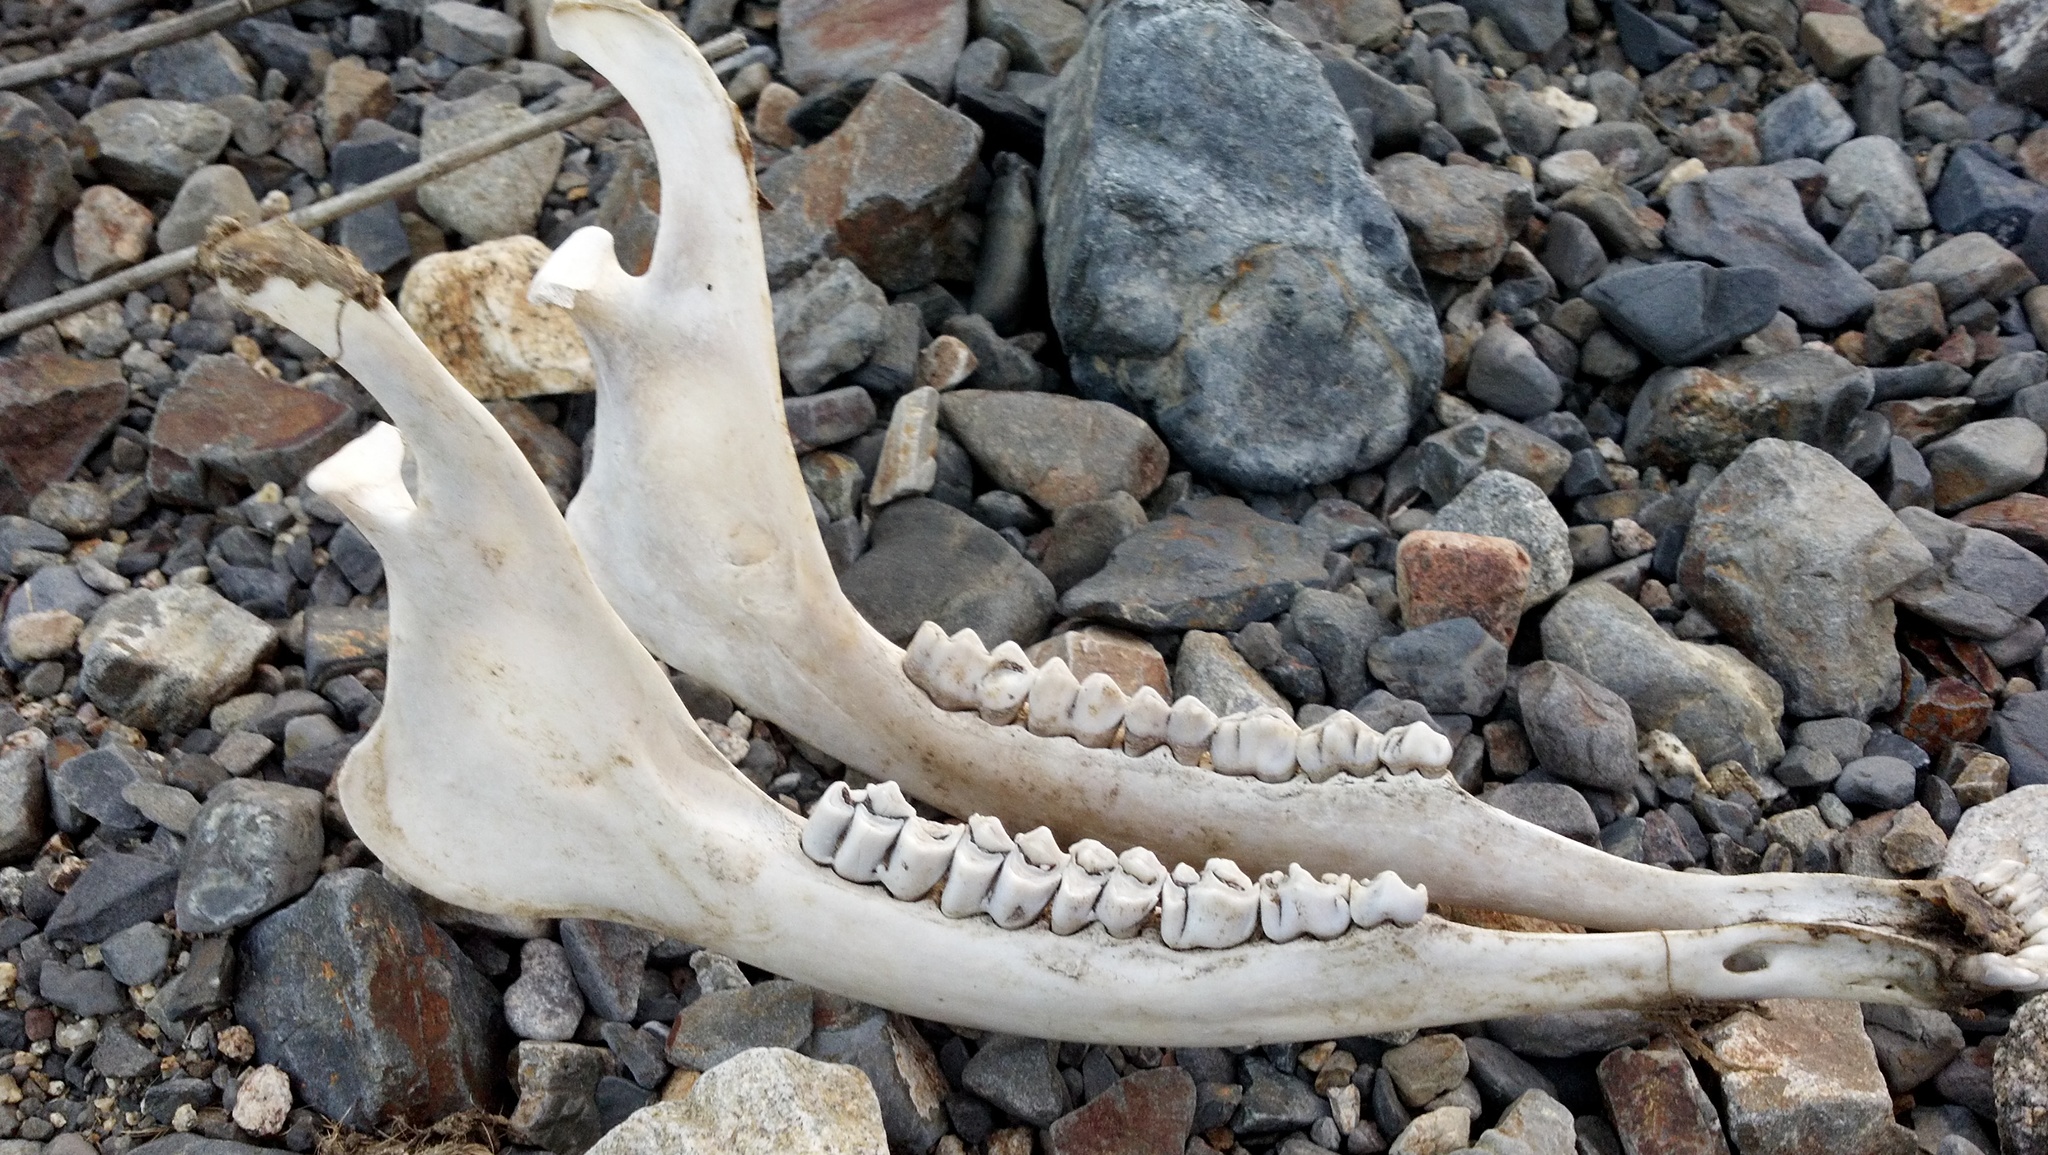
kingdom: Animalia
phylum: Chordata
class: Mammalia
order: Artiodactyla
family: Cervidae
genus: Odocoileus
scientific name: Odocoileus hemionus
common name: Mule deer
